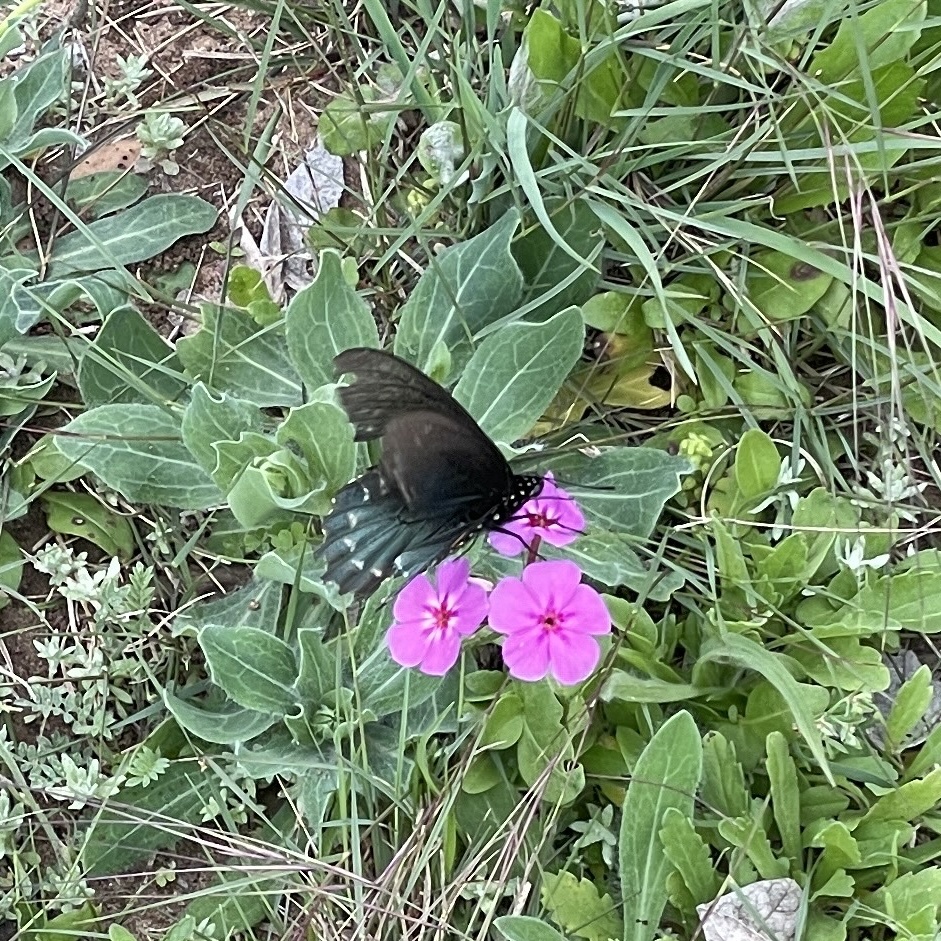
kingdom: Animalia
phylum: Arthropoda
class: Insecta
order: Lepidoptera
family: Papilionidae
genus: Battus
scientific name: Battus philenor
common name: Pipevine swallowtail
